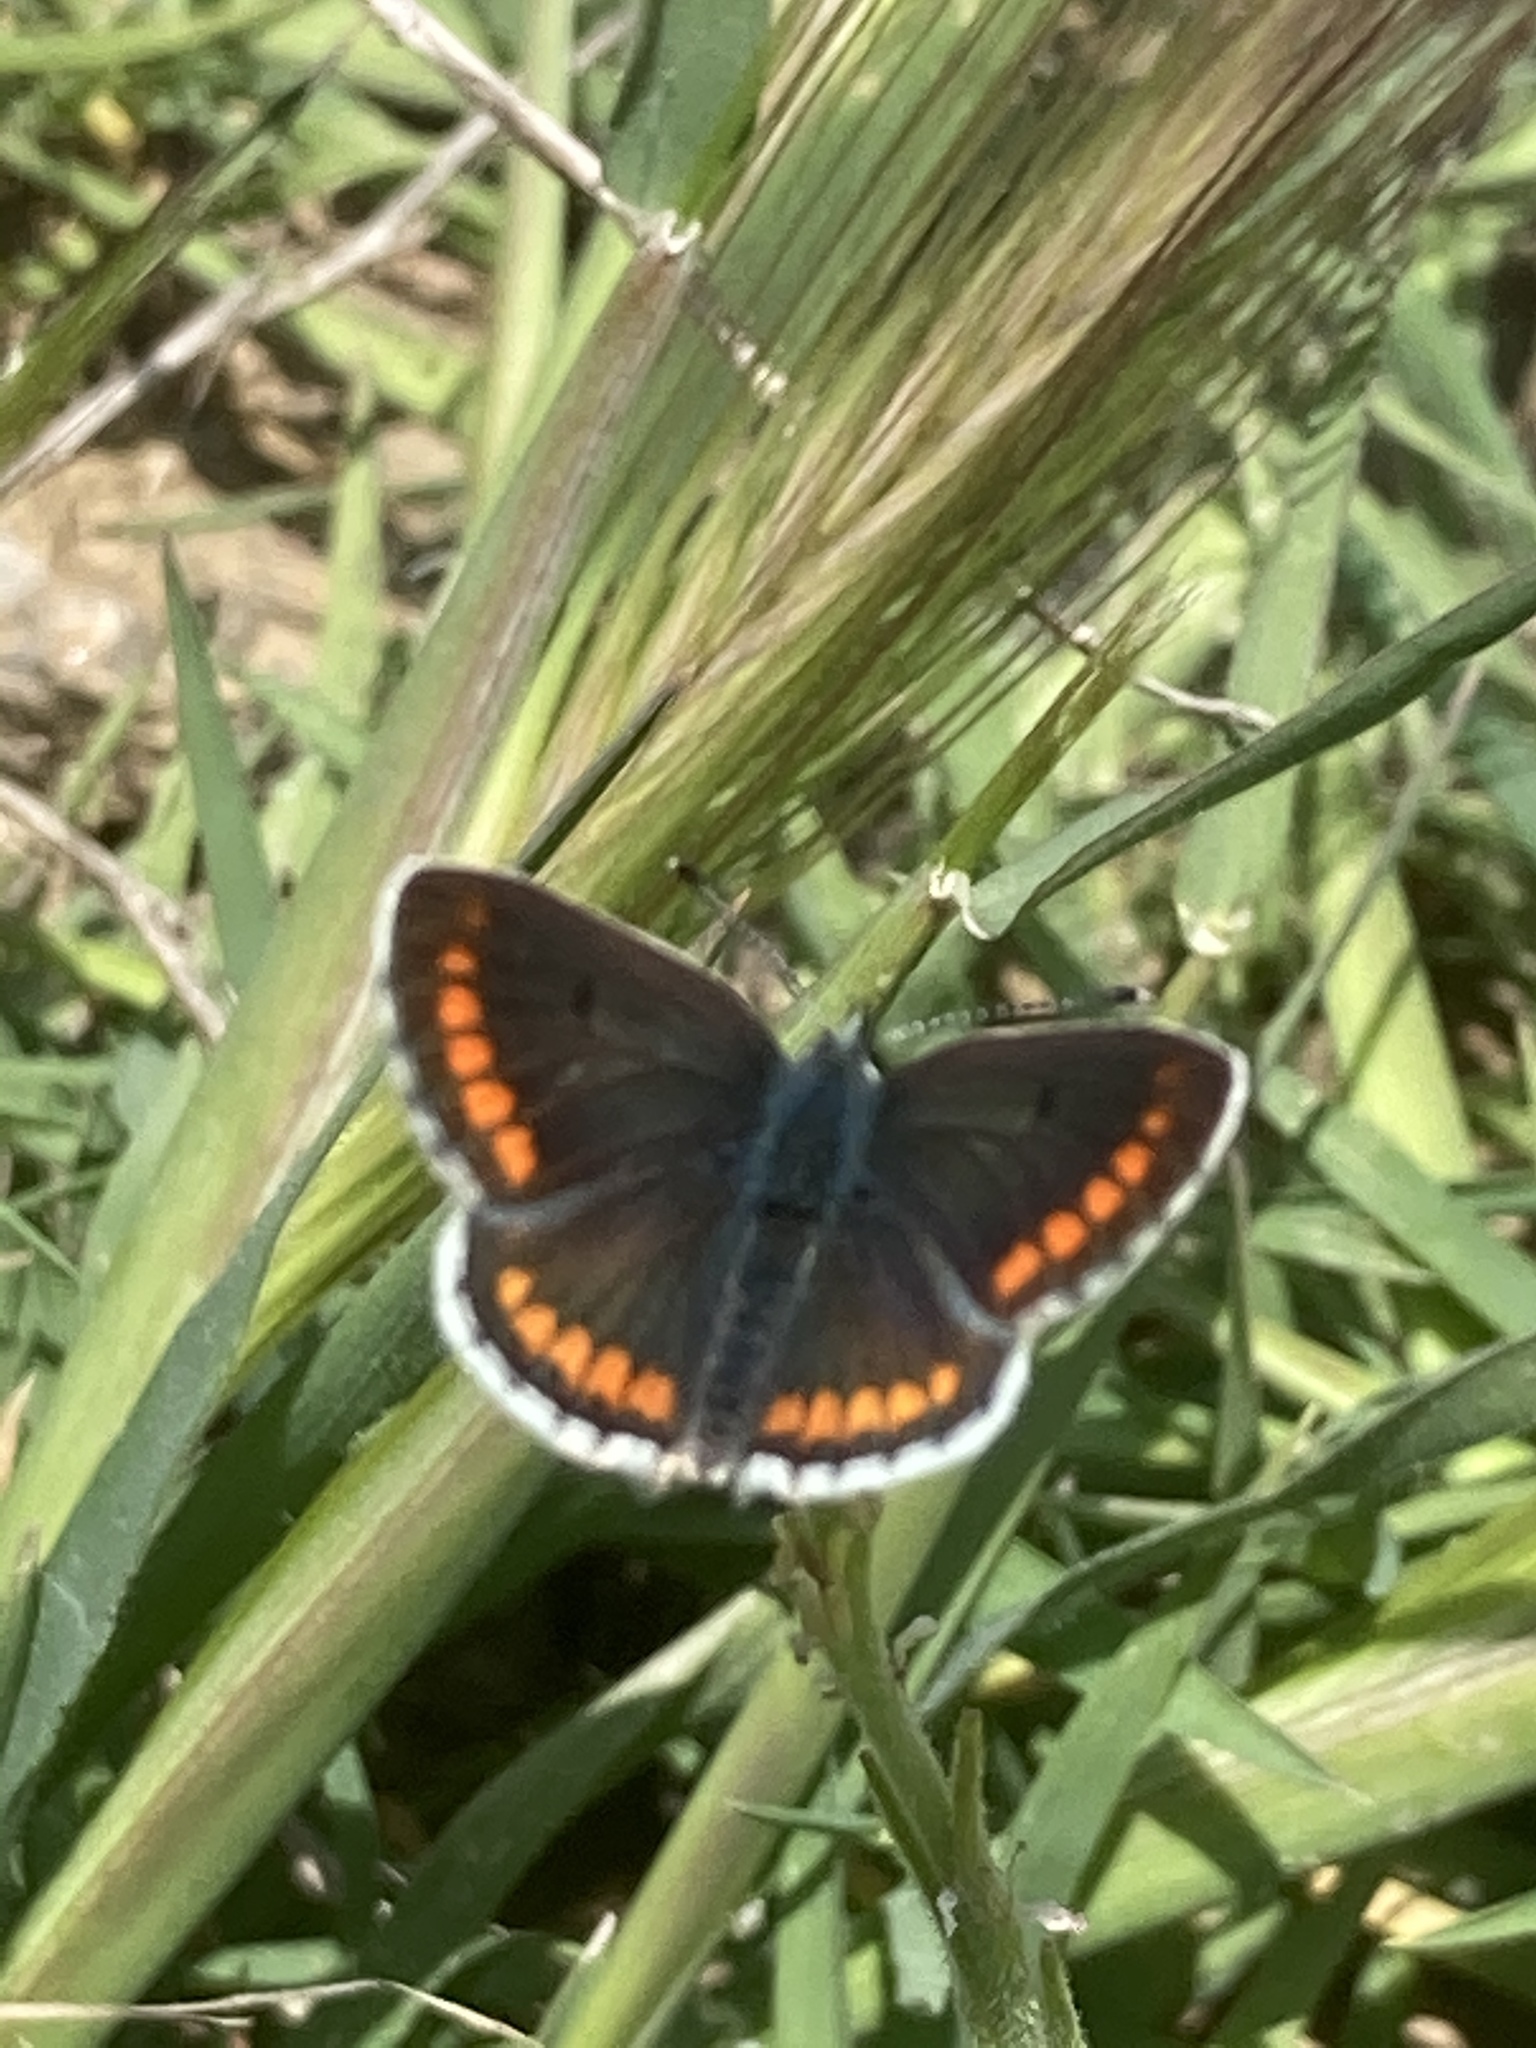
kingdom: Animalia
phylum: Arthropoda
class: Insecta
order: Lepidoptera
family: Lycaenidae
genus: Aricia
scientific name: Aricia agestis
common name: Brown argus
